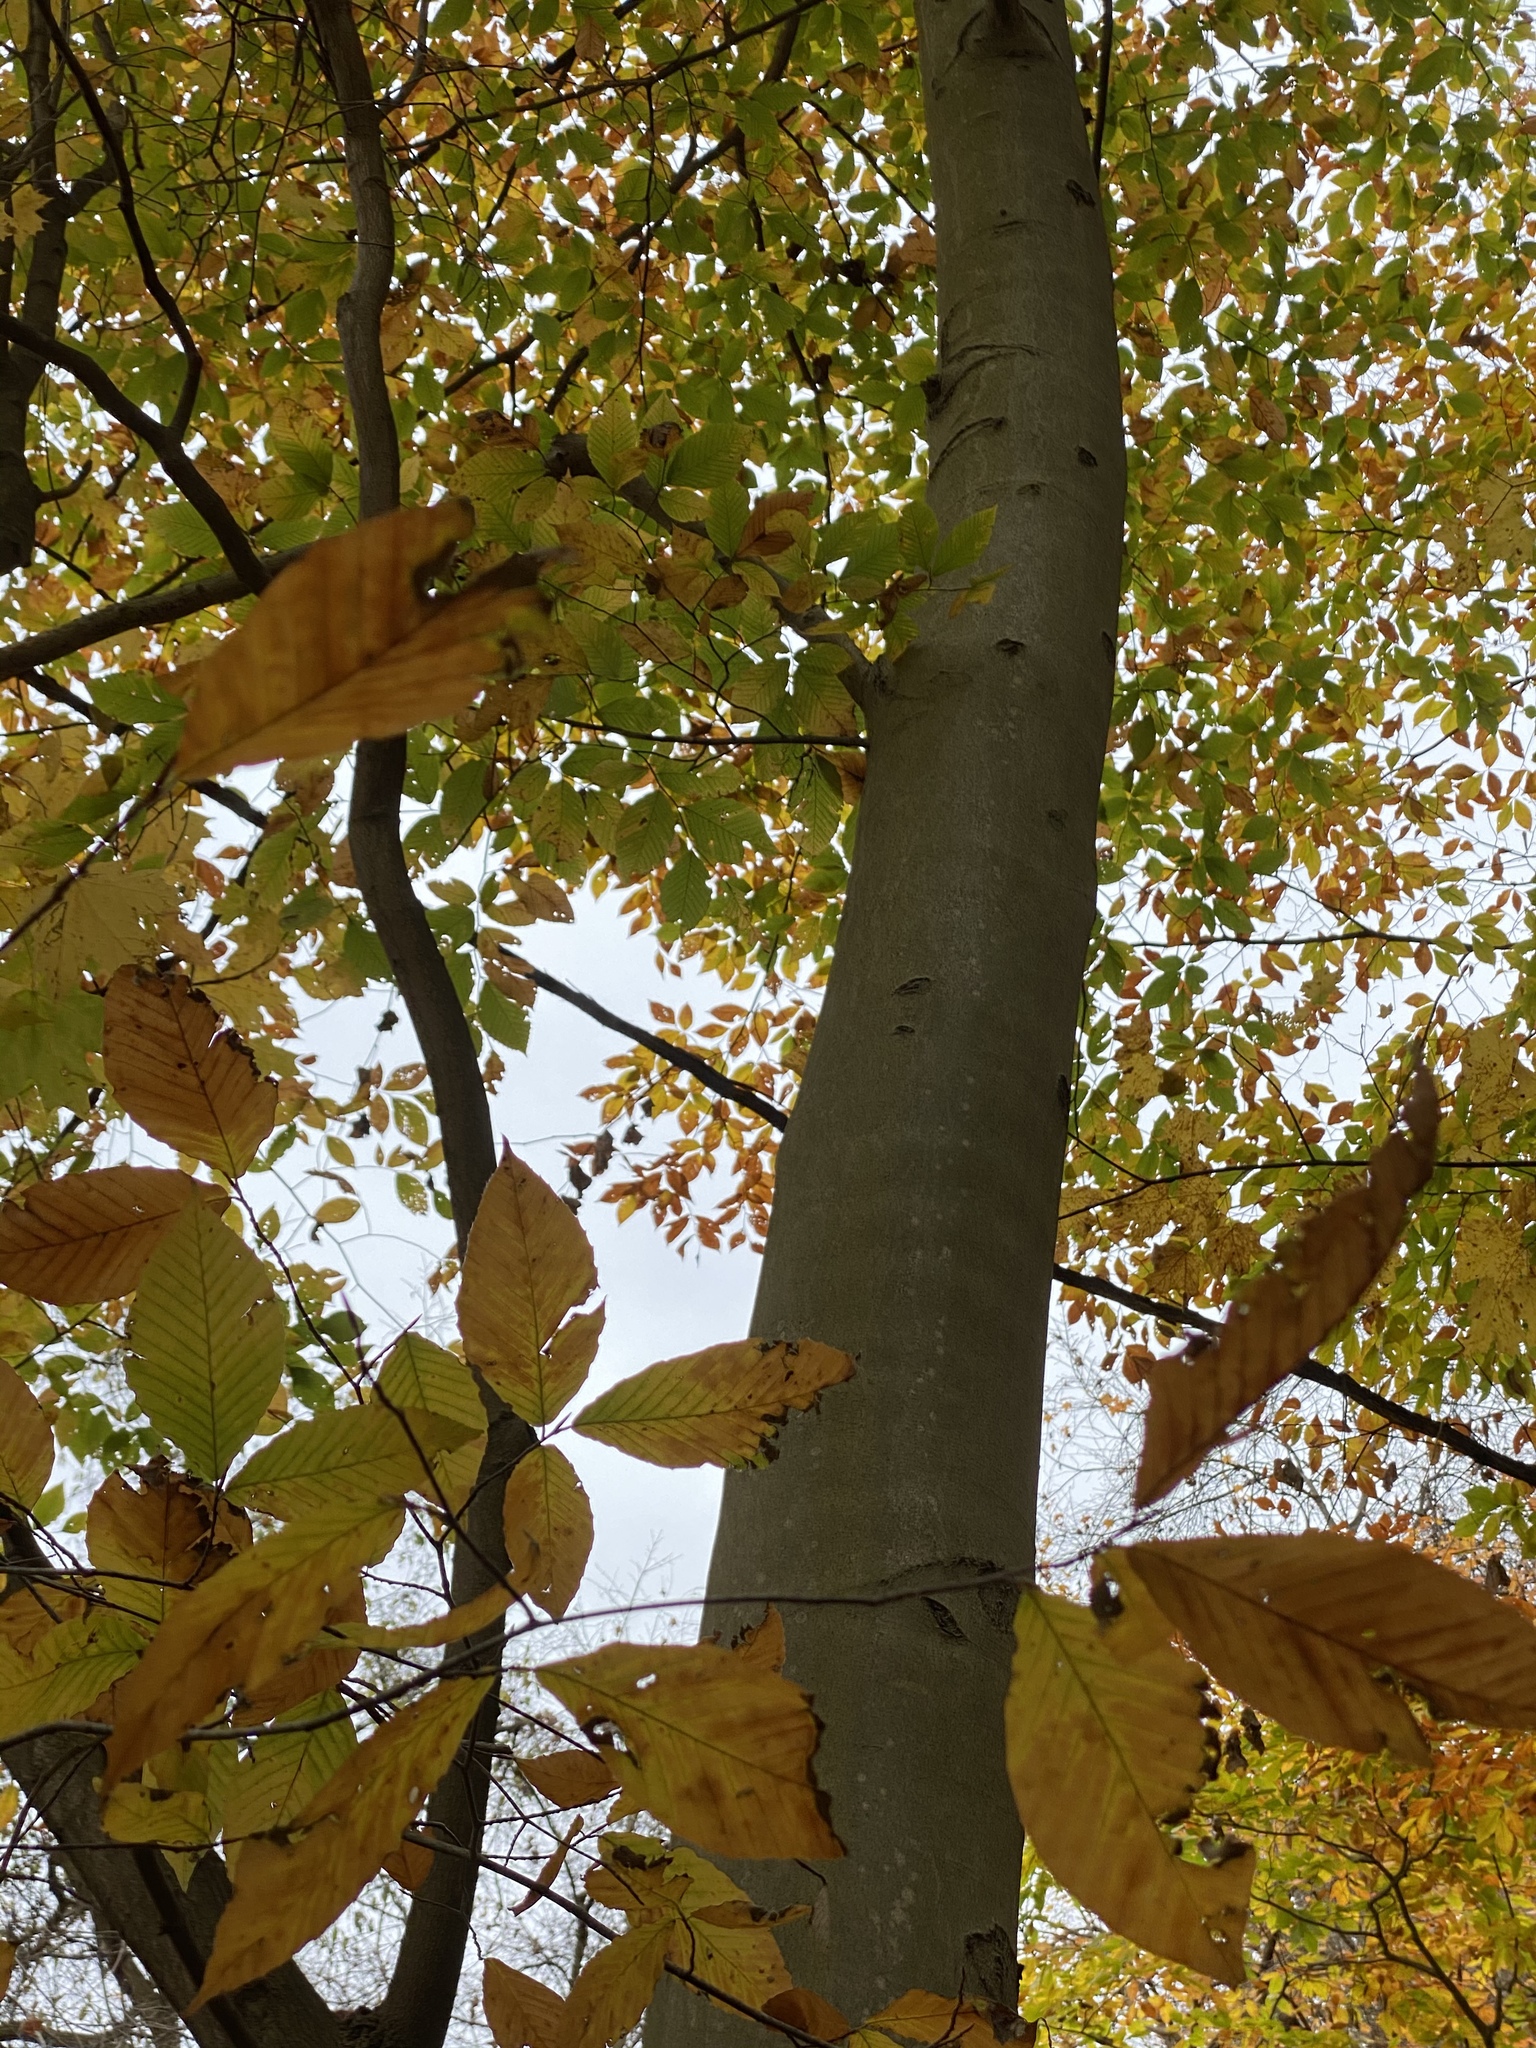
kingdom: Plantae
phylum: Tracheophyta
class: Magnoliopsida
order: Fagales
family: Fagaceae
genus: Fagus
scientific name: Fagus grandifolia
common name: American beech
